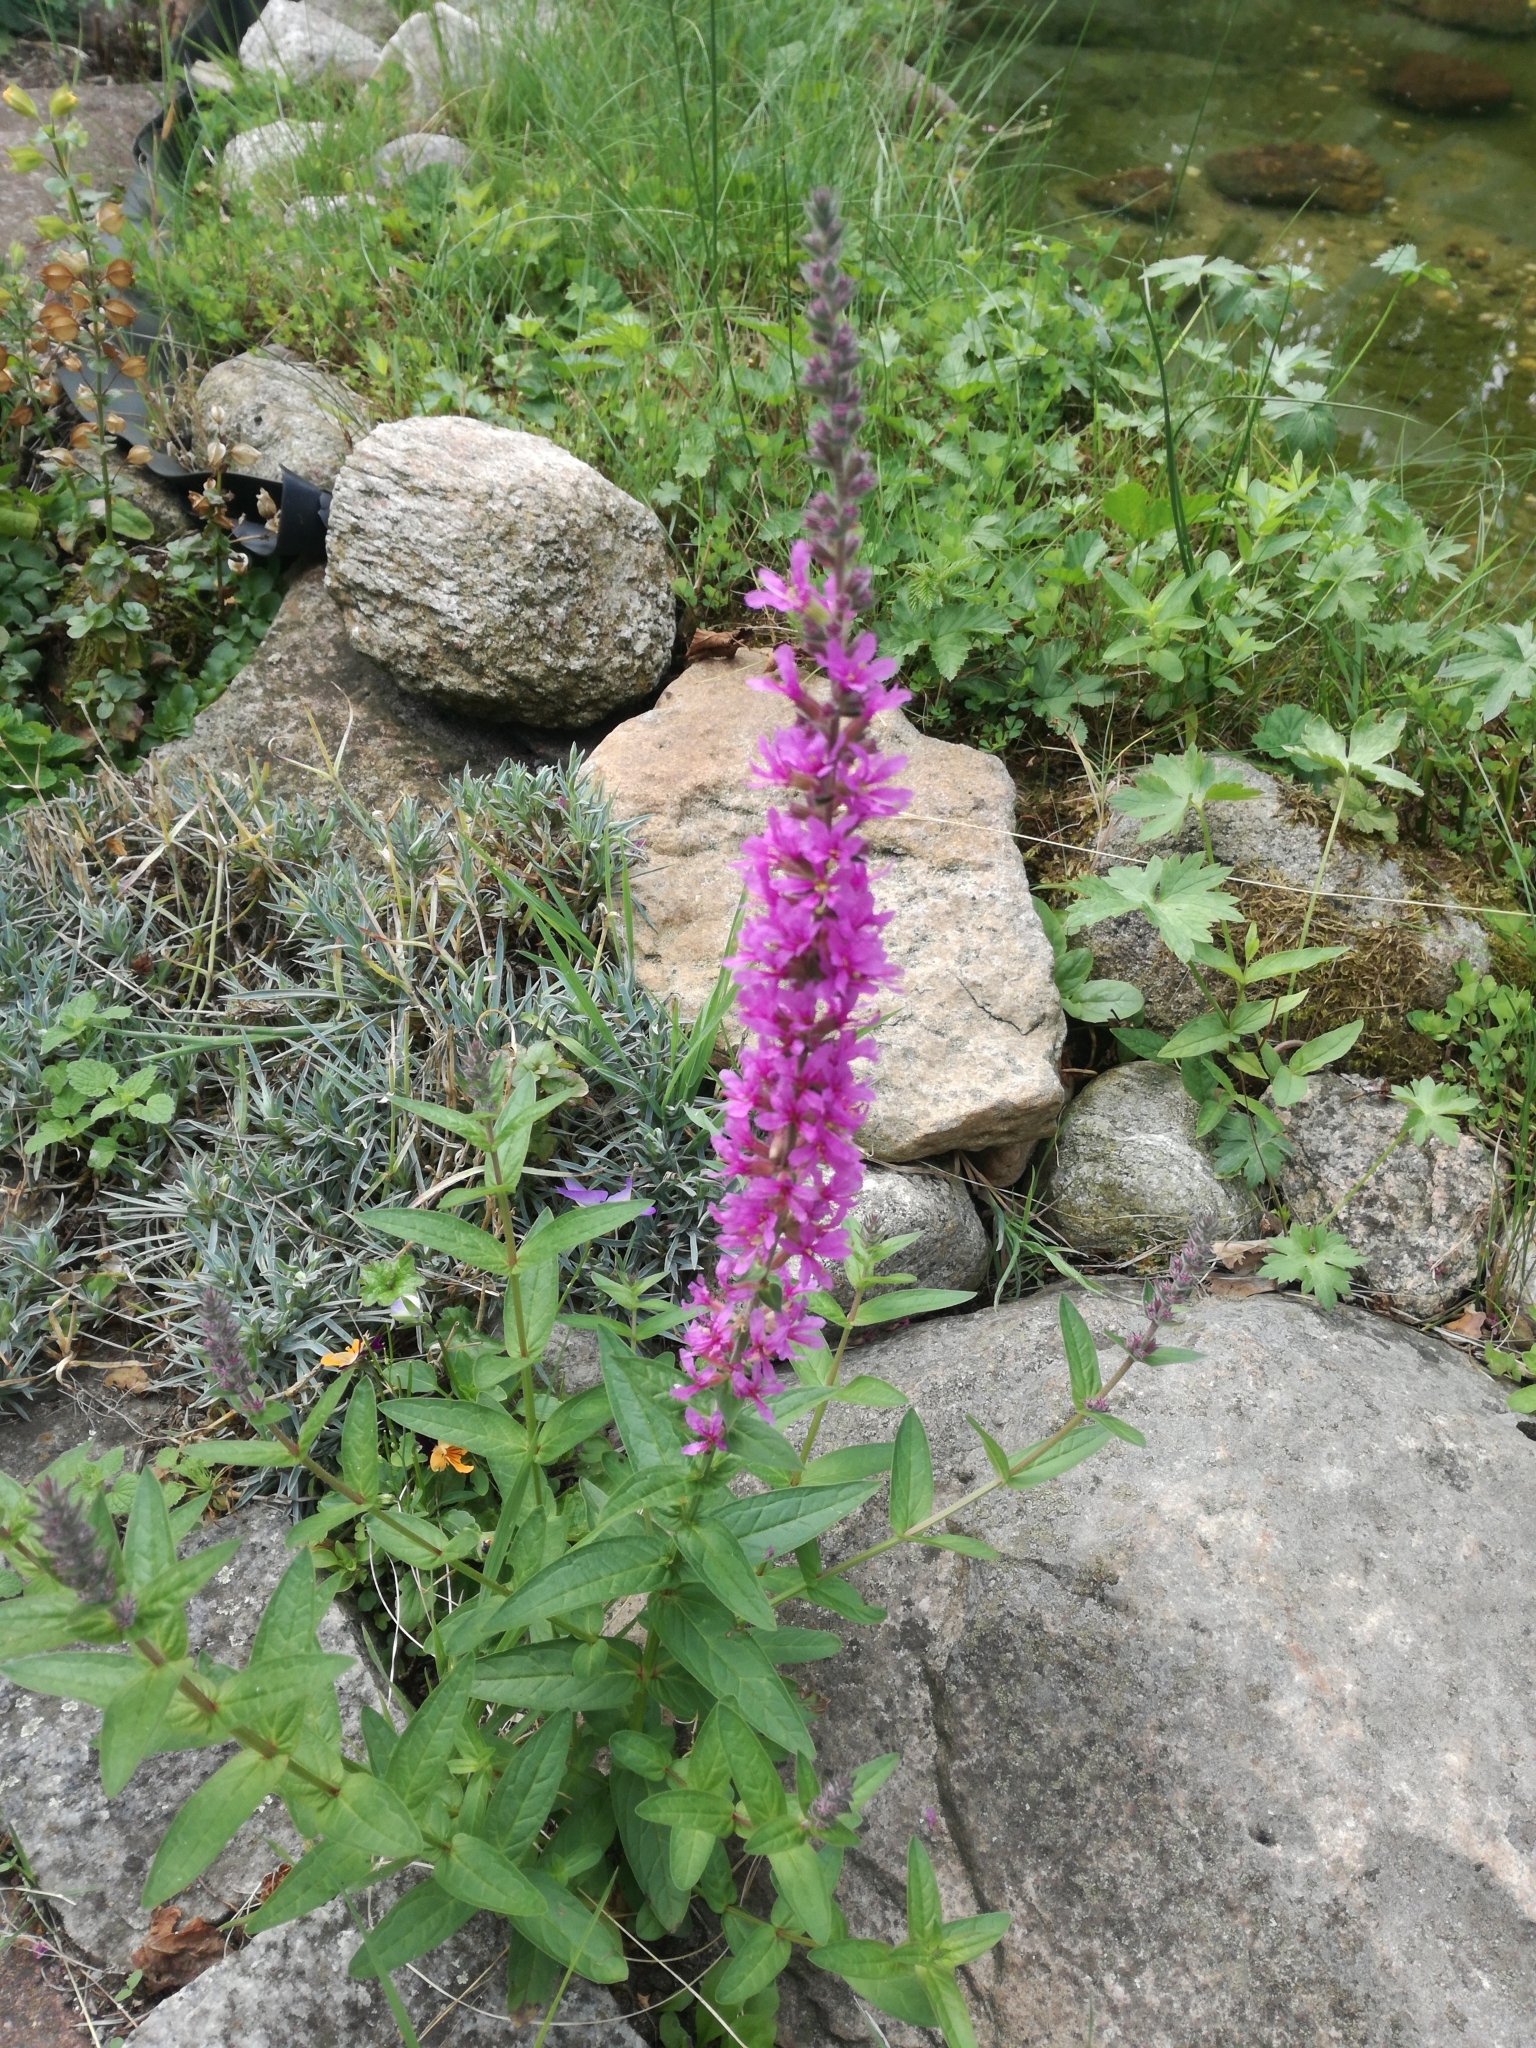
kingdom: Plantae
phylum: Tracheophyta
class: Magnoliopsida
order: Myrtales
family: Lythraceae
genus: Lythrum
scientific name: Lythrum salicaria
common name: Purple loosestrife
